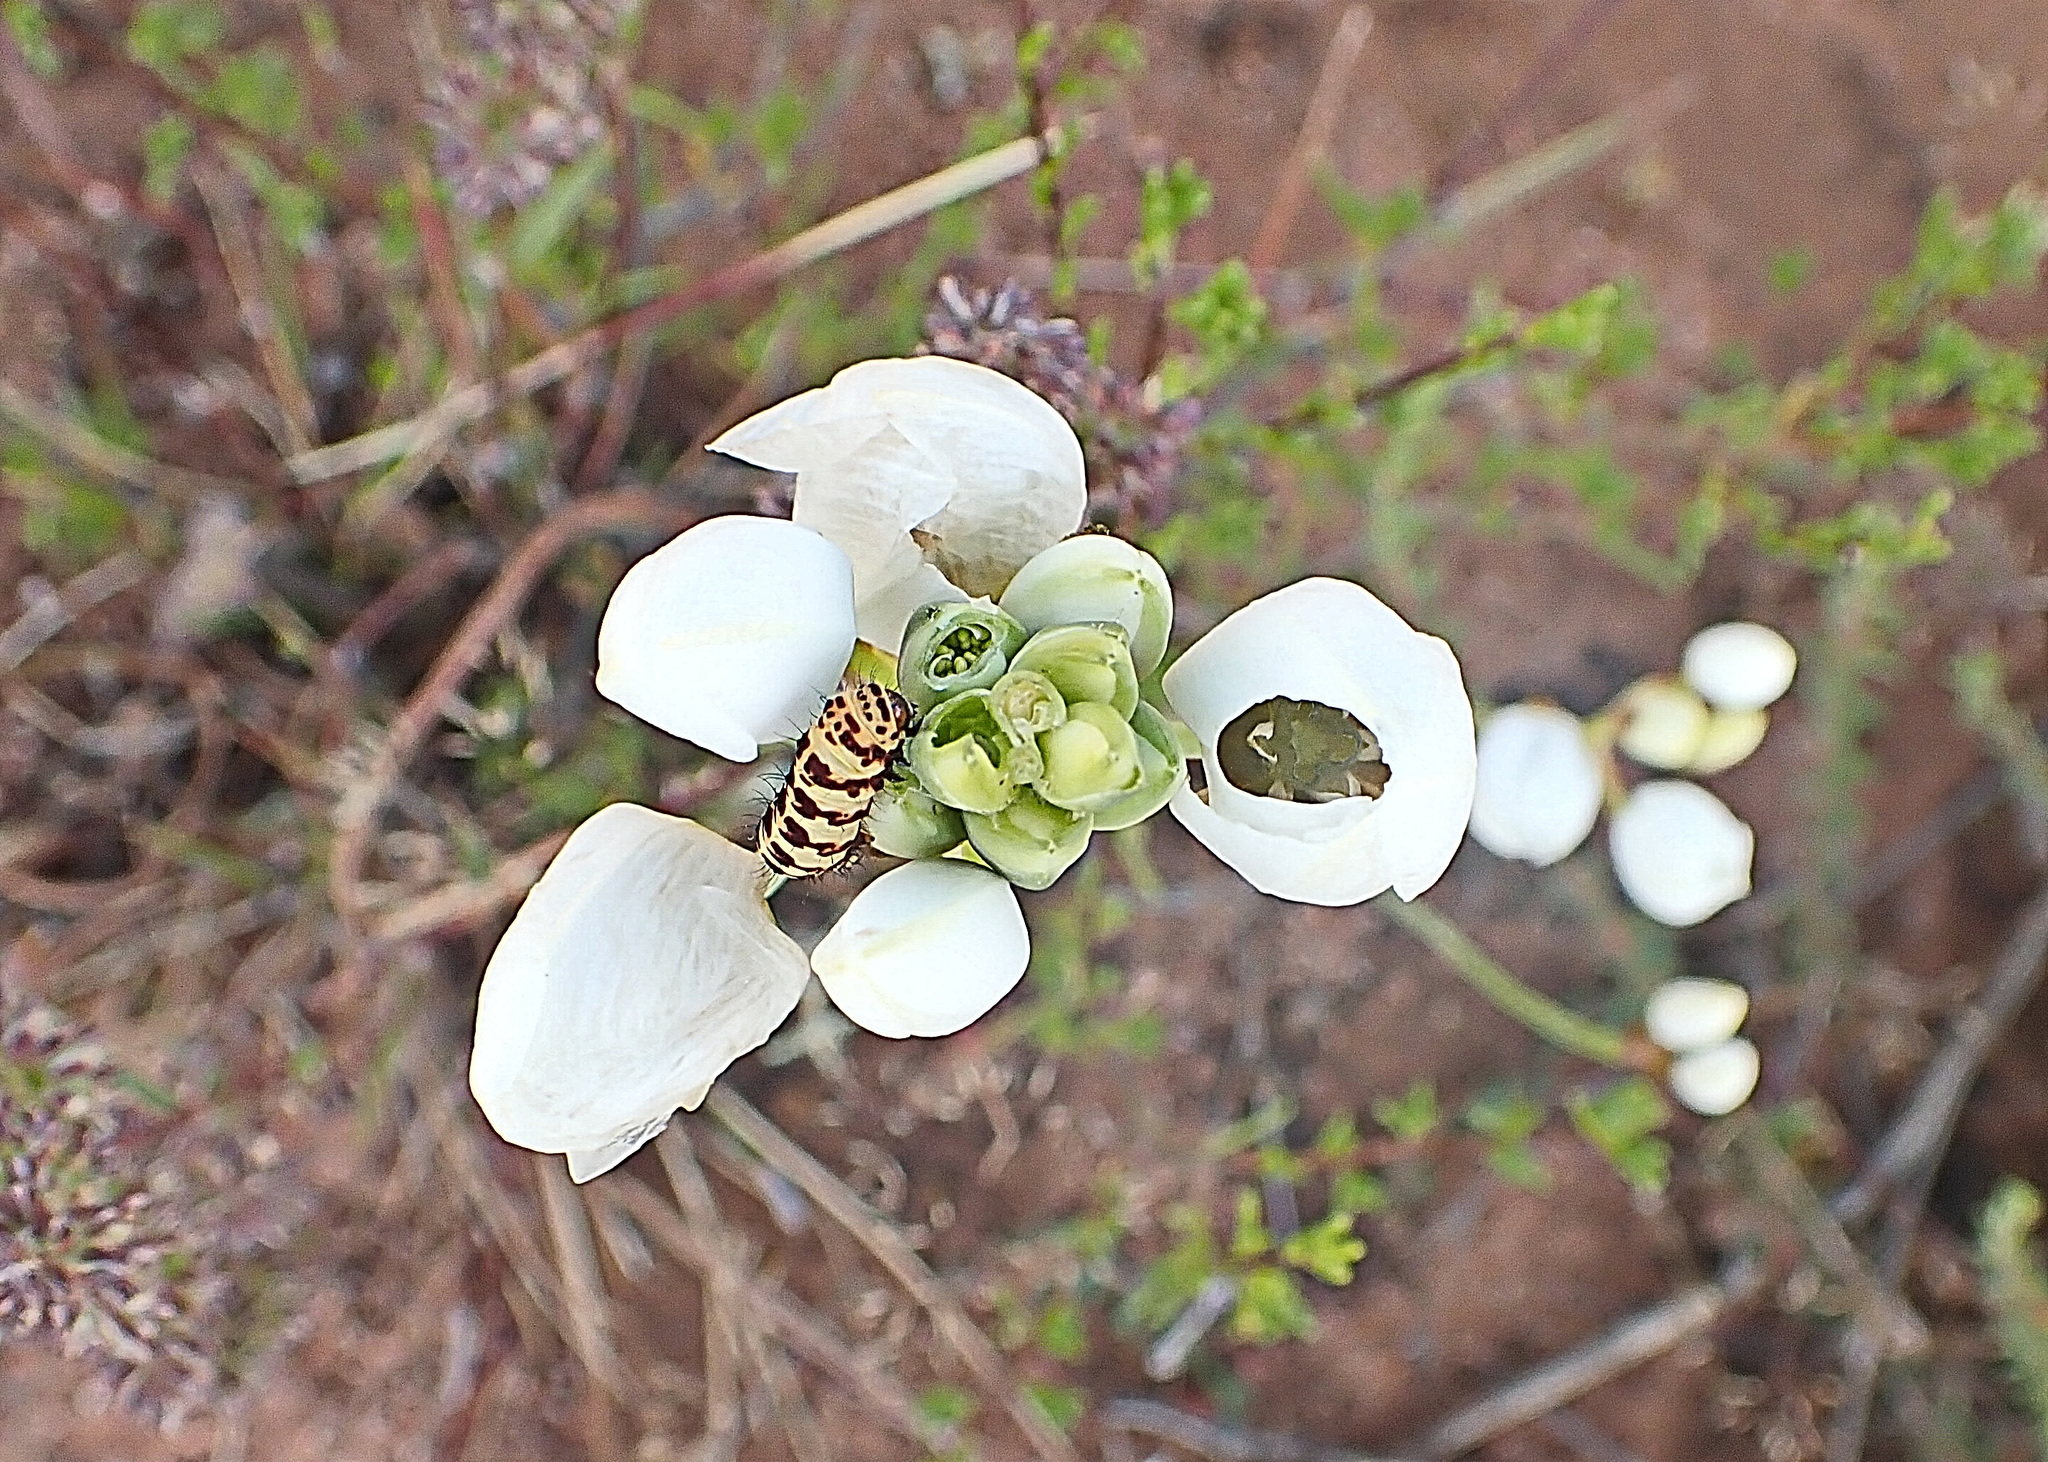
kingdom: Animalia
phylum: Arthropoda
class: Insecta
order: Lepidoptera
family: Noctuidae
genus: Diaphone
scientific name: Diaphone eumela
